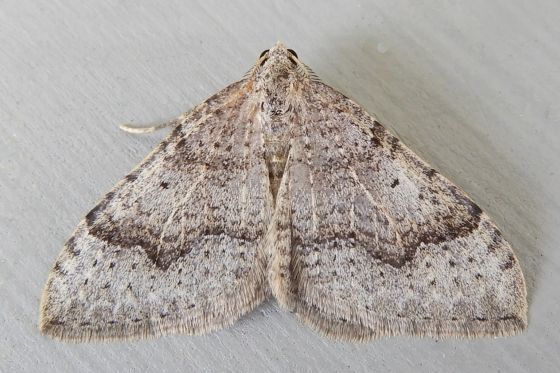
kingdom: Animalia
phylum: Arthropoda
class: Insecta
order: Lepidoptera
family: Geometridae
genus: Zenophleps
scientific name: Zenophleps lignicolorata
